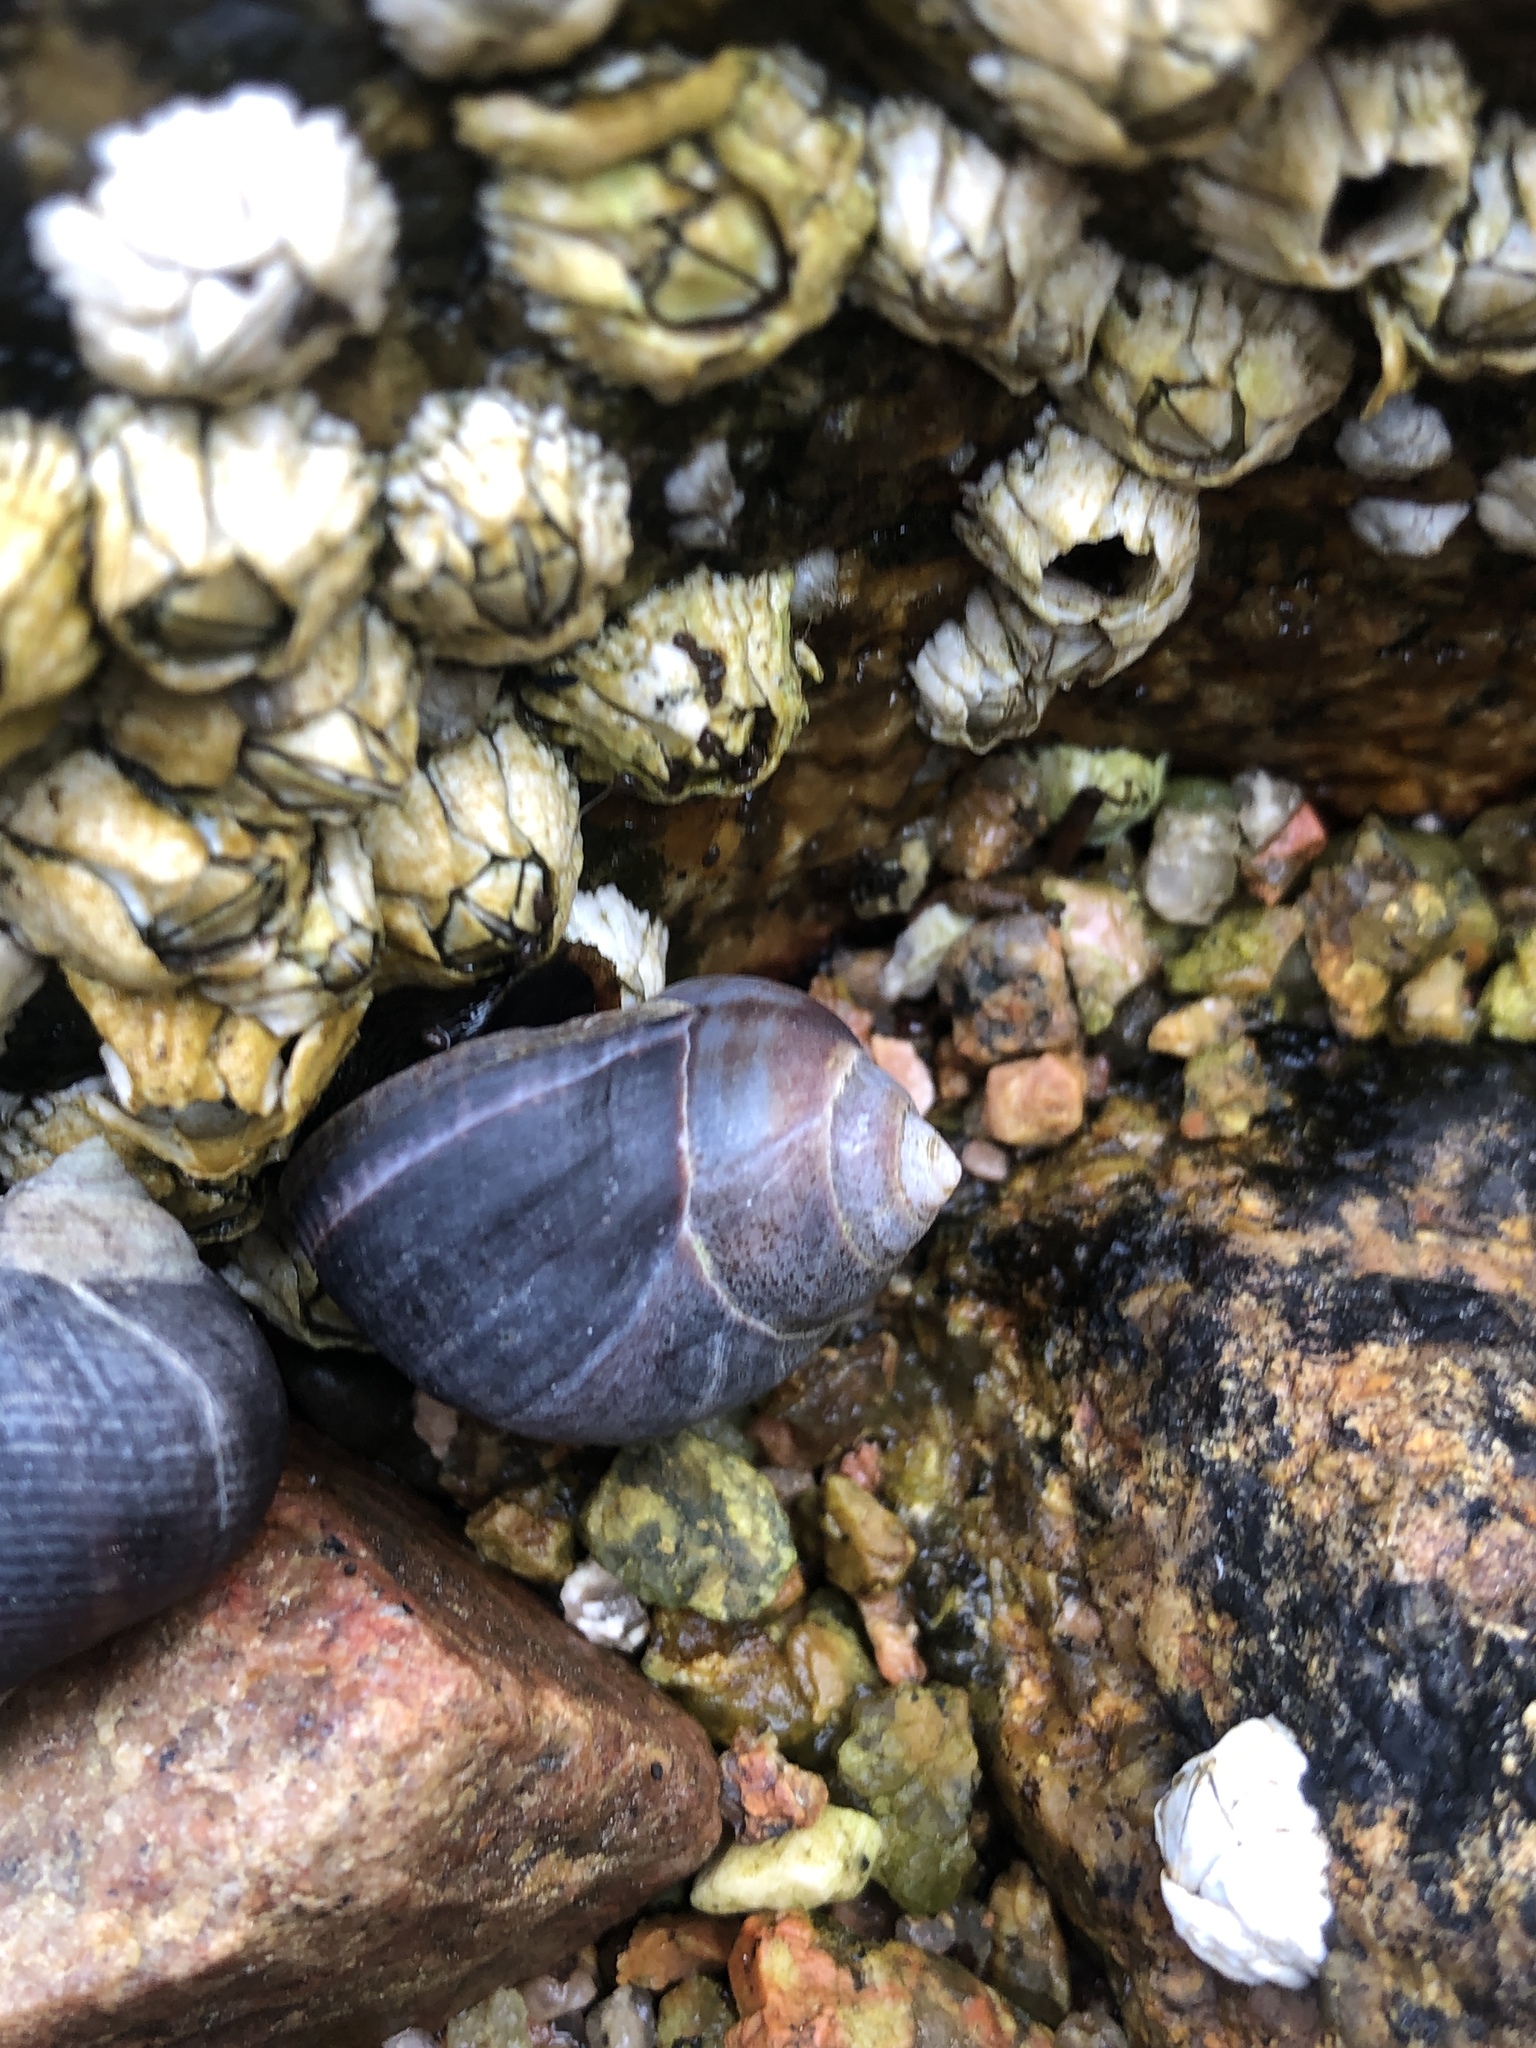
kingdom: Animalia
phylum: Mollusca
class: Gastropoda
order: Littorinimorpha
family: Littorinidae
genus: Littorina
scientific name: Littorina littorea
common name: Common periwinkle
